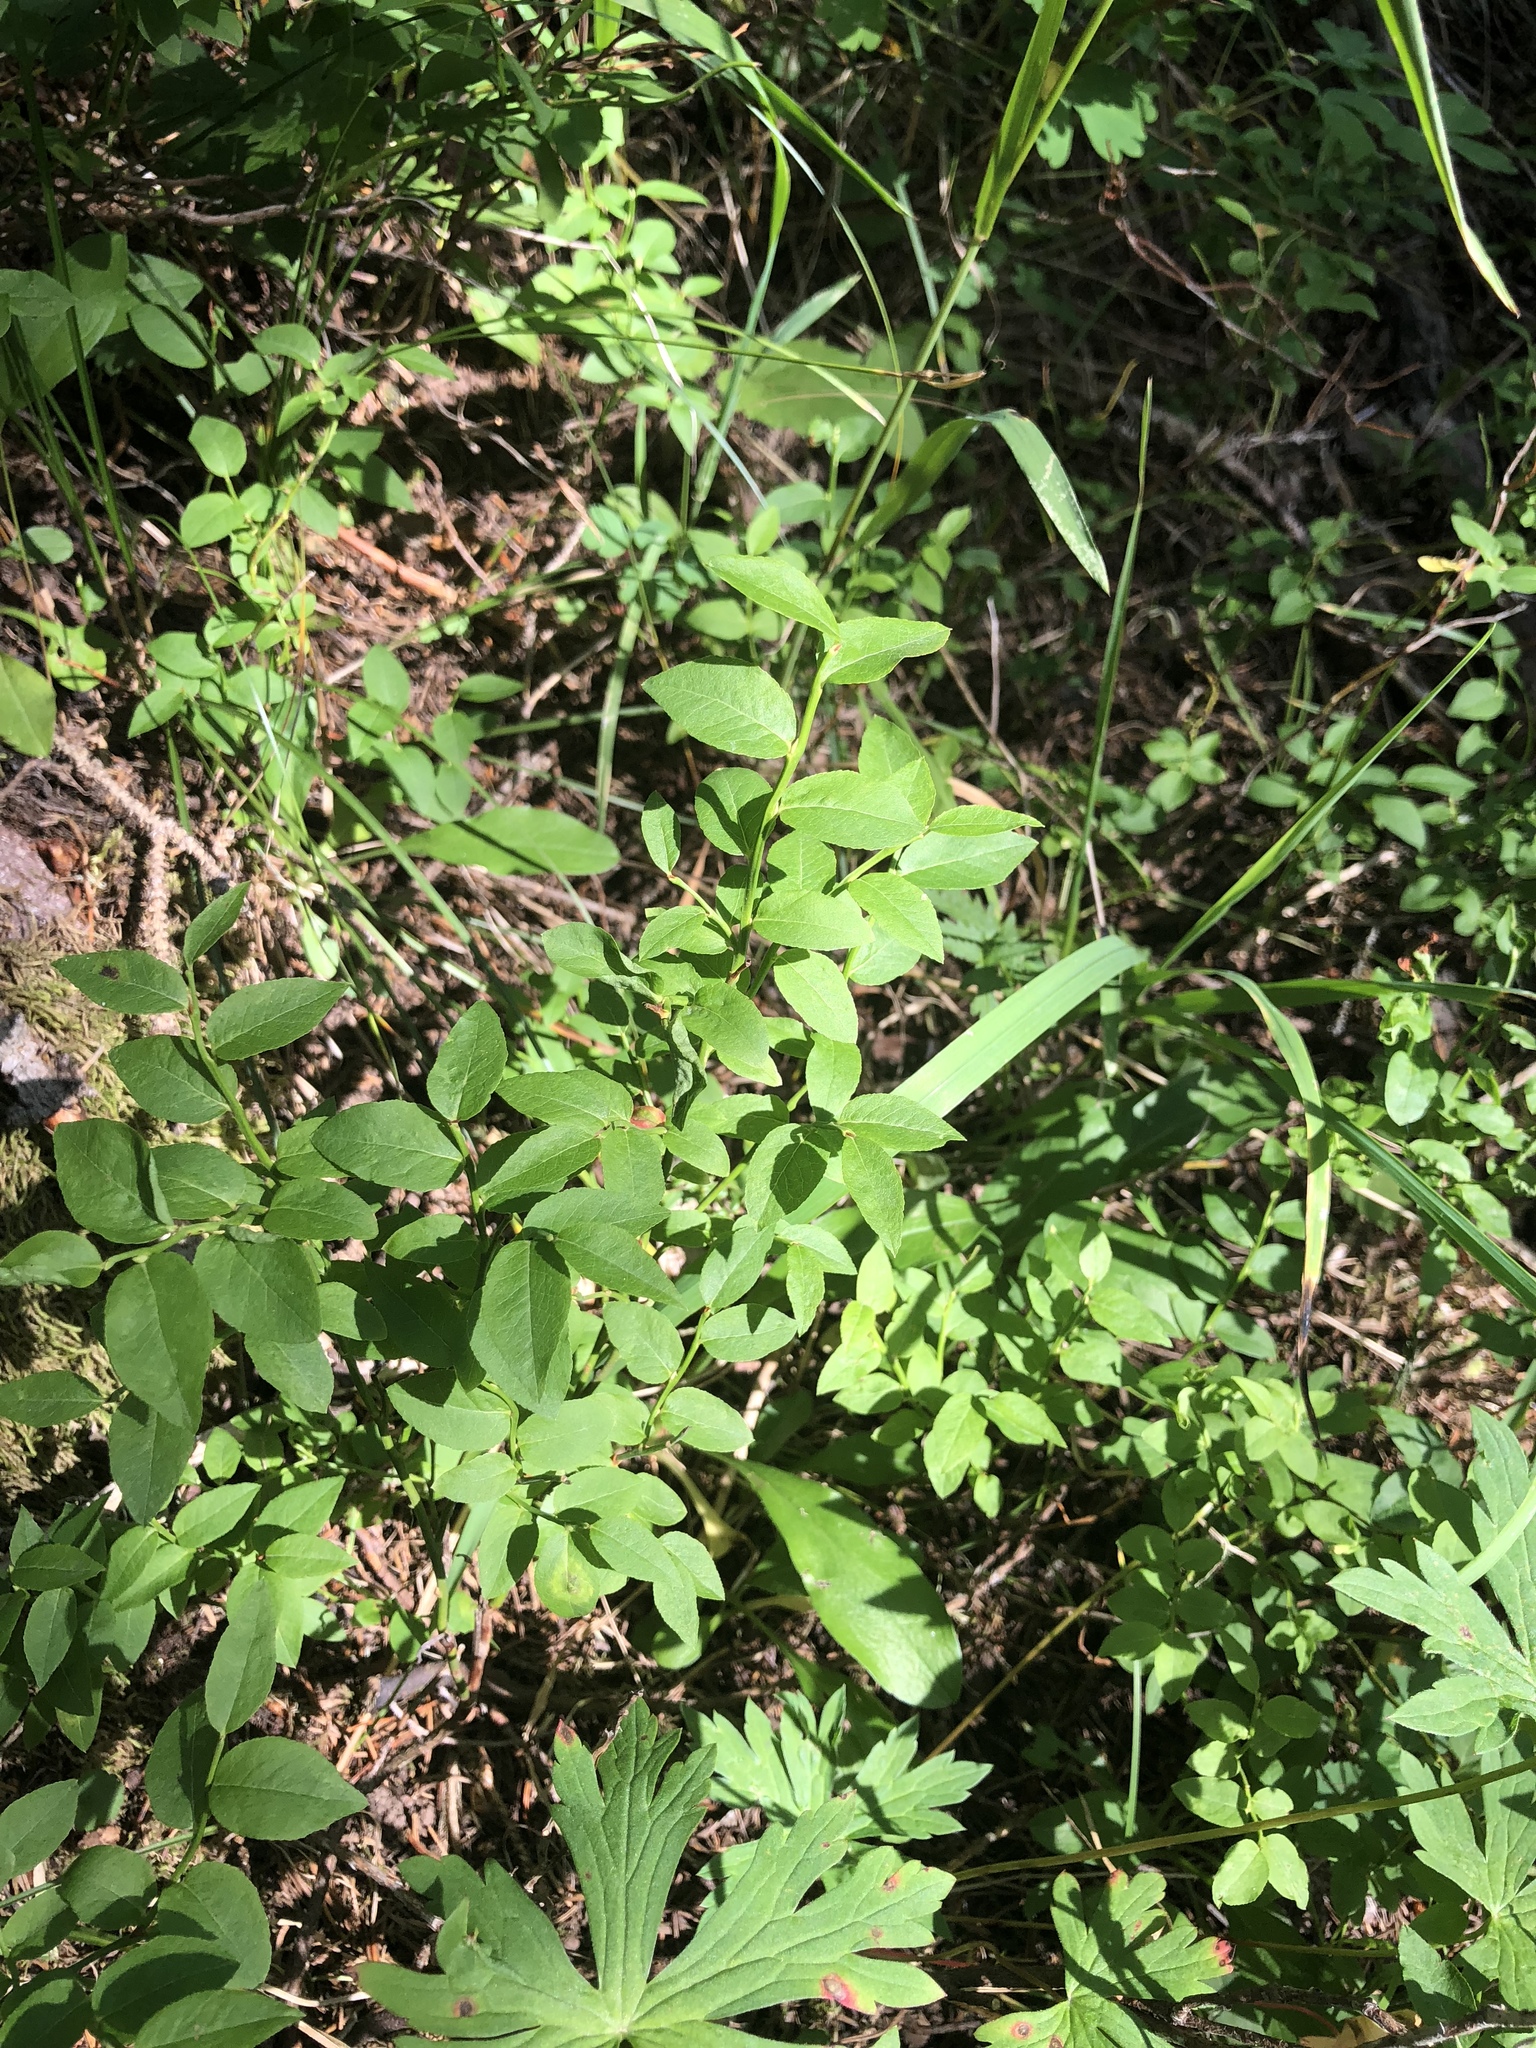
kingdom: Plantae
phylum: Tracheophyta
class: Magnoliopsida
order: Ericales
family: Ericaceae
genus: Vaccinium
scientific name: Vaccinium myrtillus
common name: Bilberry
